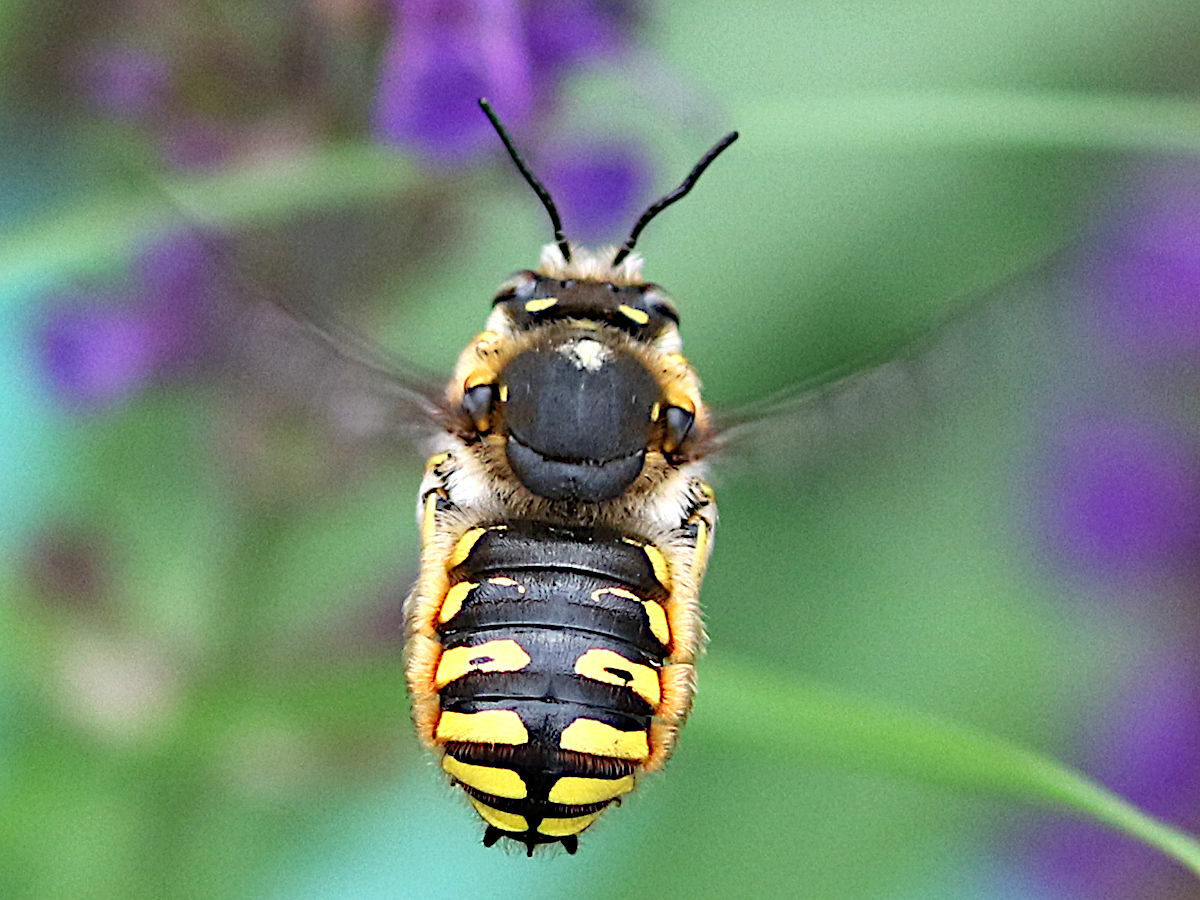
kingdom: Animalia
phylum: Arthropoda
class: Insecta
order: Hymenoptera
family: Megachilidae
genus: Anthidium
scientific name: Anthidium manicatum
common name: Wool carder bee
